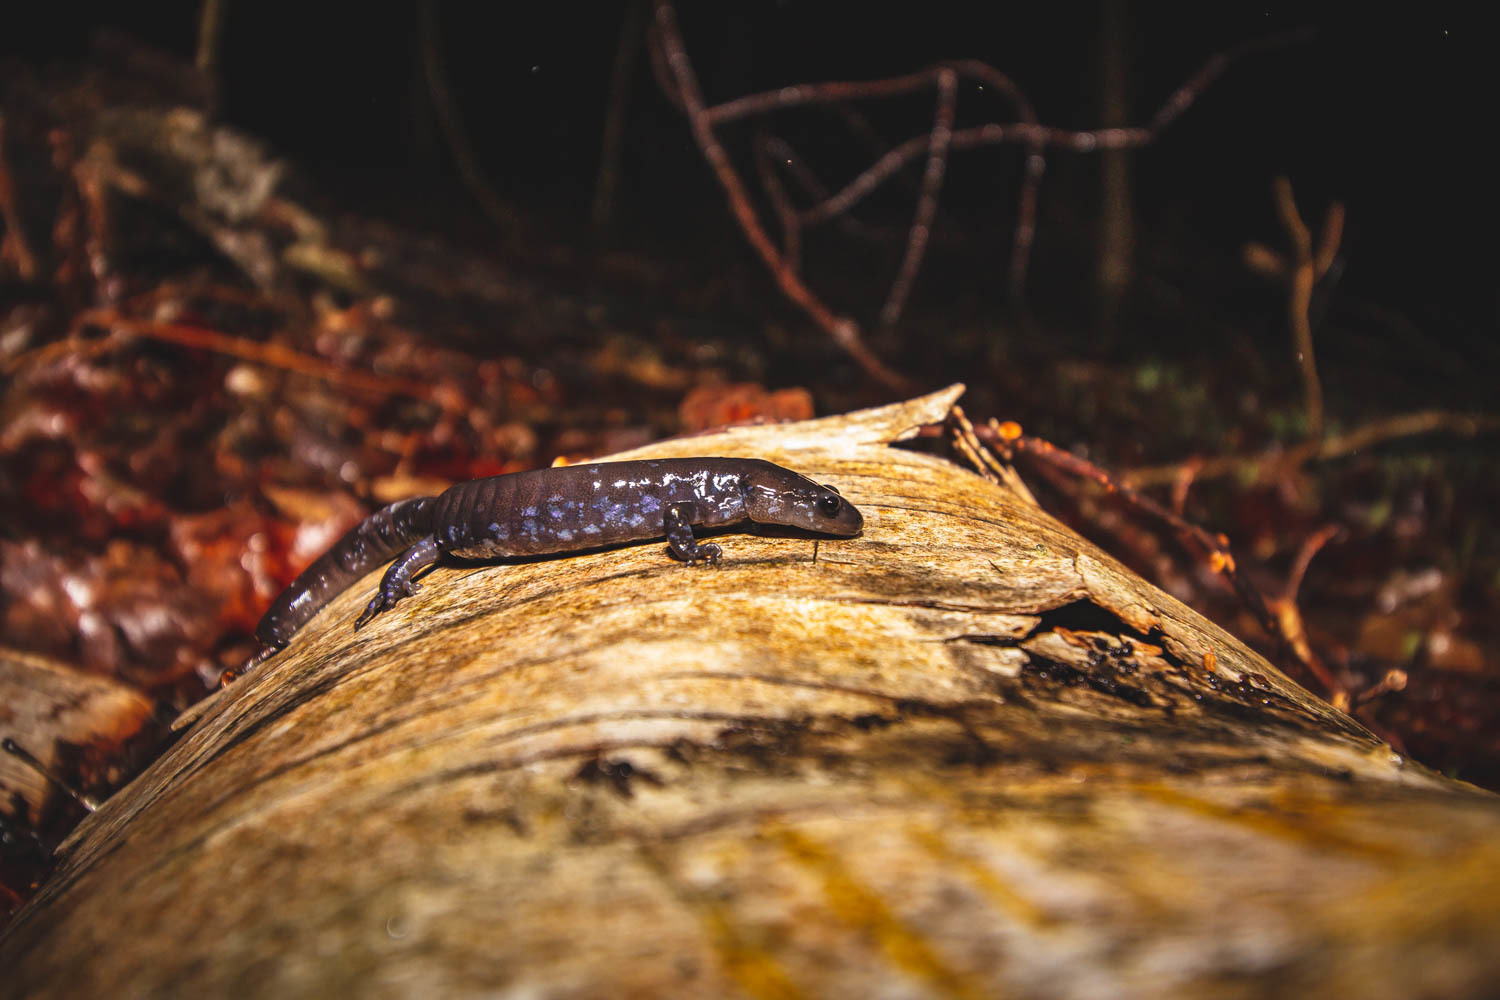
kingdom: Animalia
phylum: Chordata
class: Amphibia
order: Caudata
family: Ambystomatidae
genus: Ambystoma
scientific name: Ambystoma laterale
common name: Blue-spotted salamander
